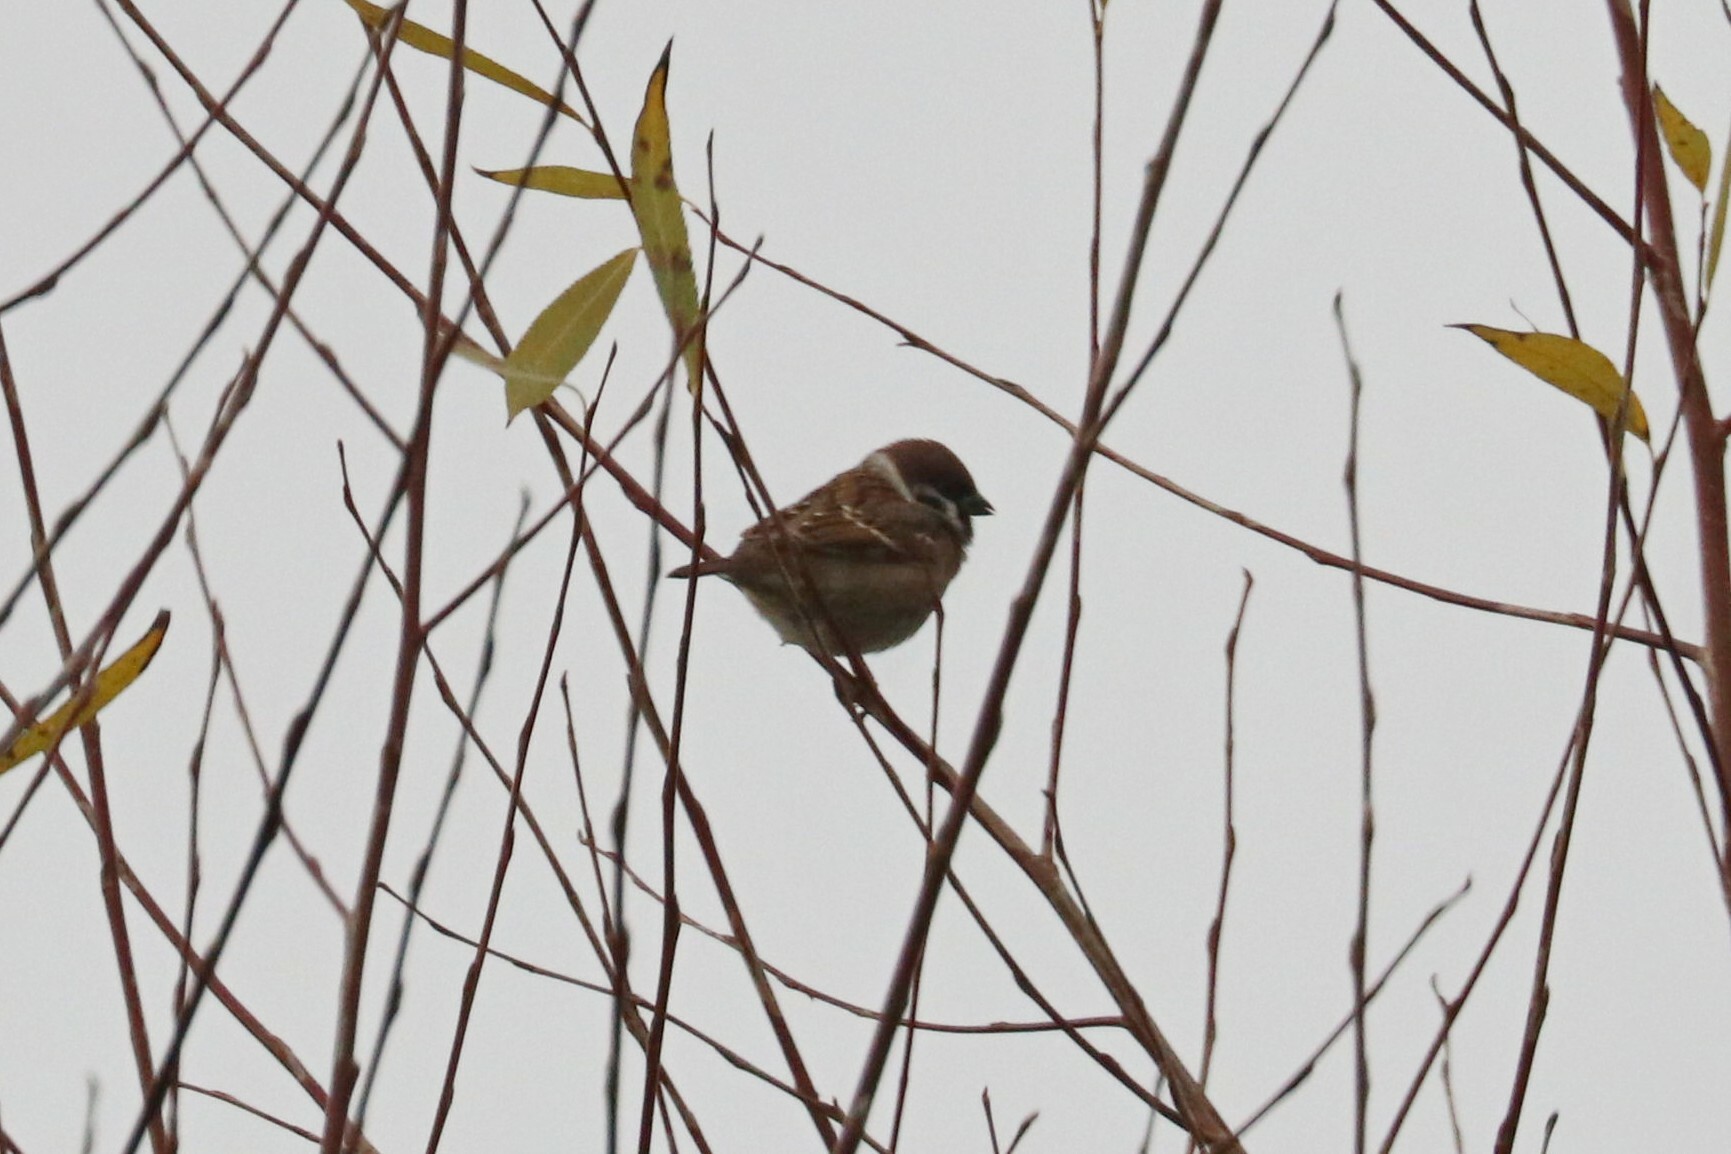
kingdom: Animalia
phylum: Chordata
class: Aves
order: Passeriformes
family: Passeridae
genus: Passer
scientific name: Passer montanus
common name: Eurasian tree sparrow
